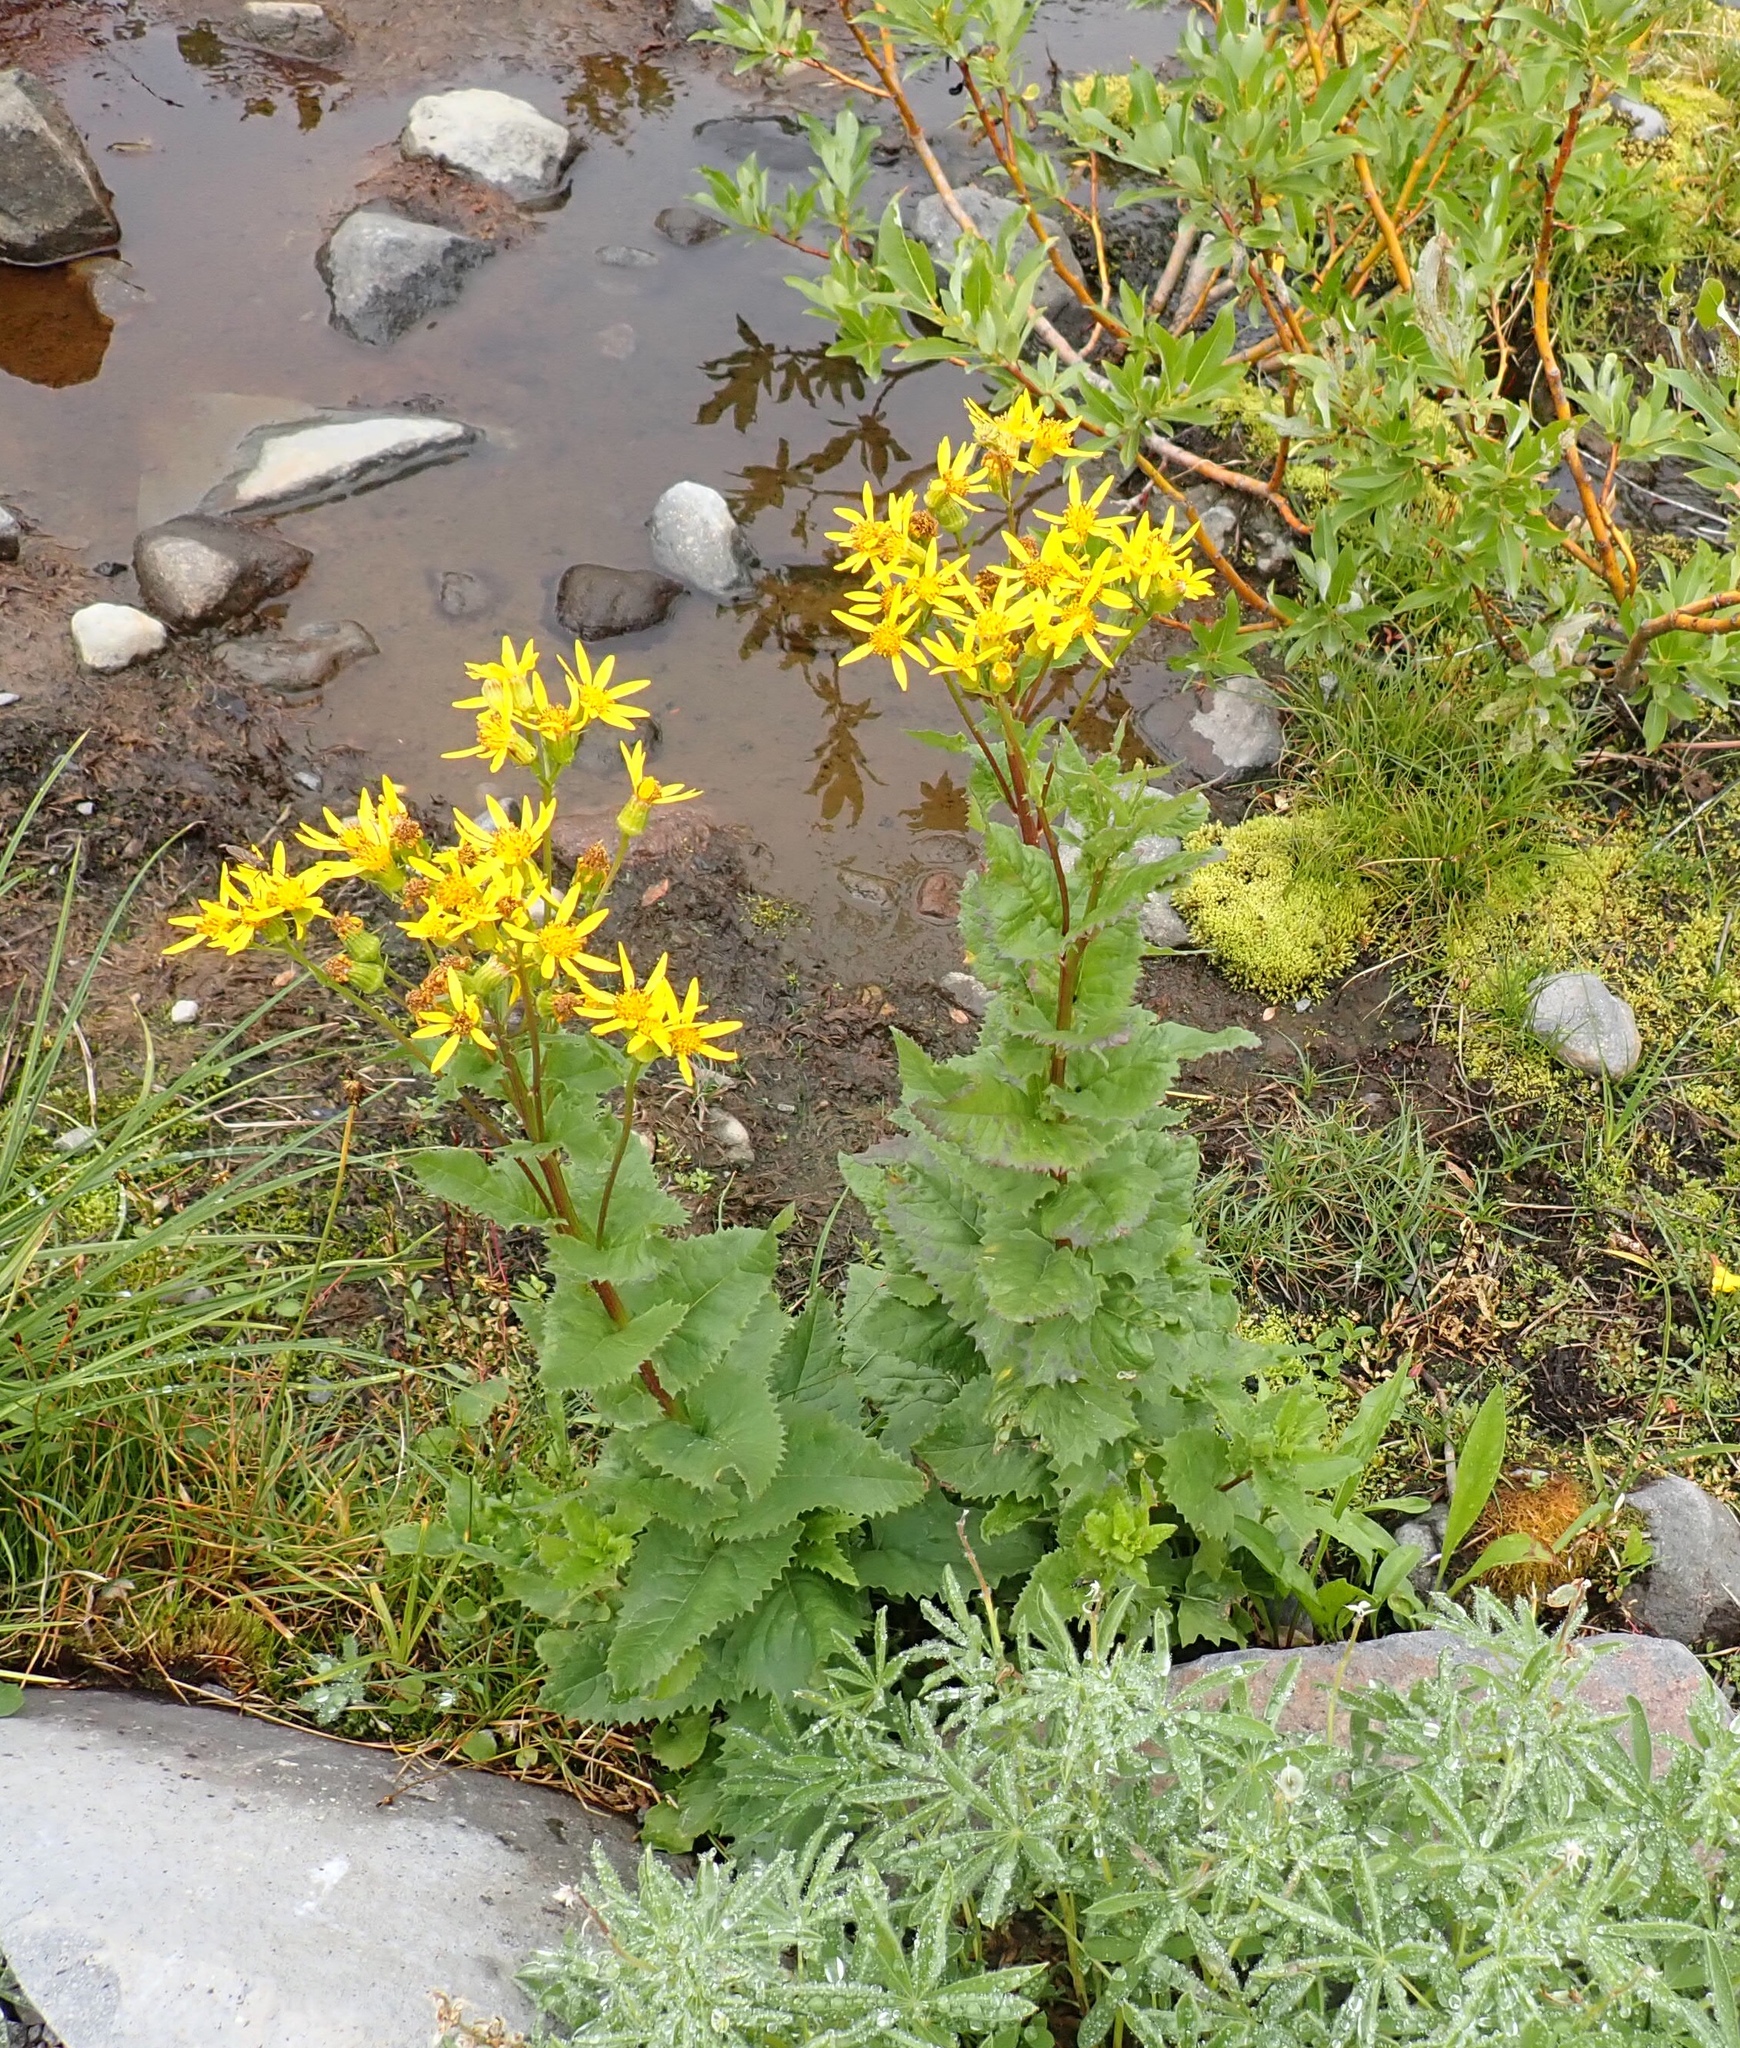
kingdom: Plantae
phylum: Tracheophyta
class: Magnoliopsida
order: Asterales
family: Asteraceae
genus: Senecio
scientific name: Senecio triangularis
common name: Arrowleaf butterweed
